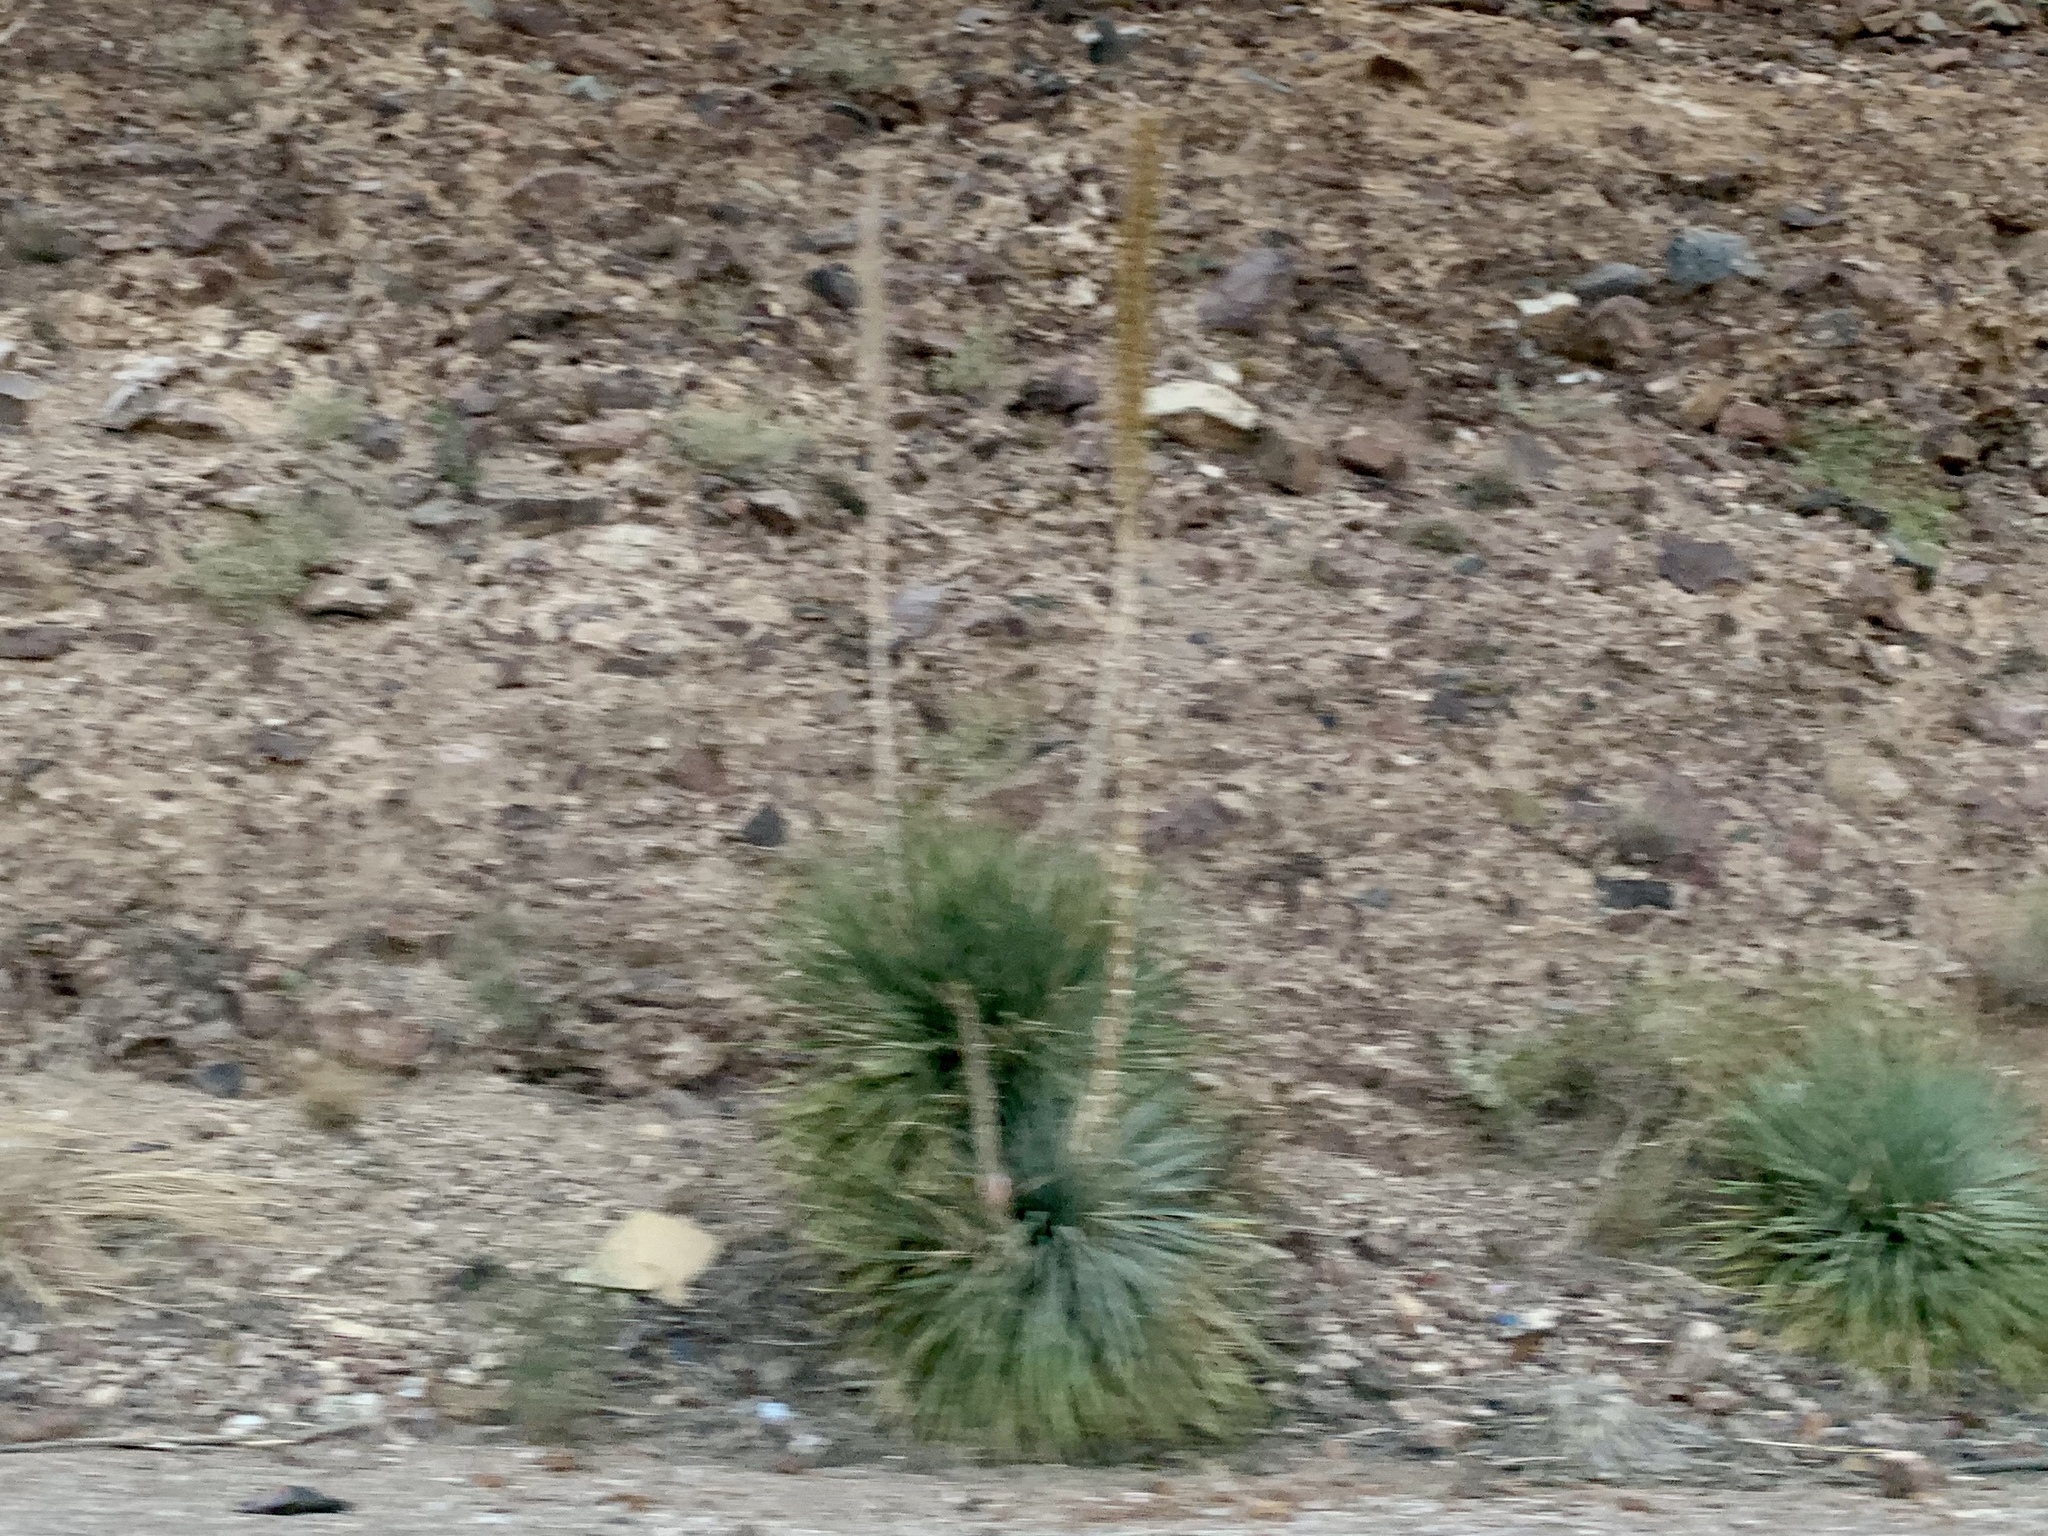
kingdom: Plantae
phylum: Tracheophyta
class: Liliopsida
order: Asparagales
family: Asparagaceae
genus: Dasylirion
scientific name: Dasylirion wheeleri
